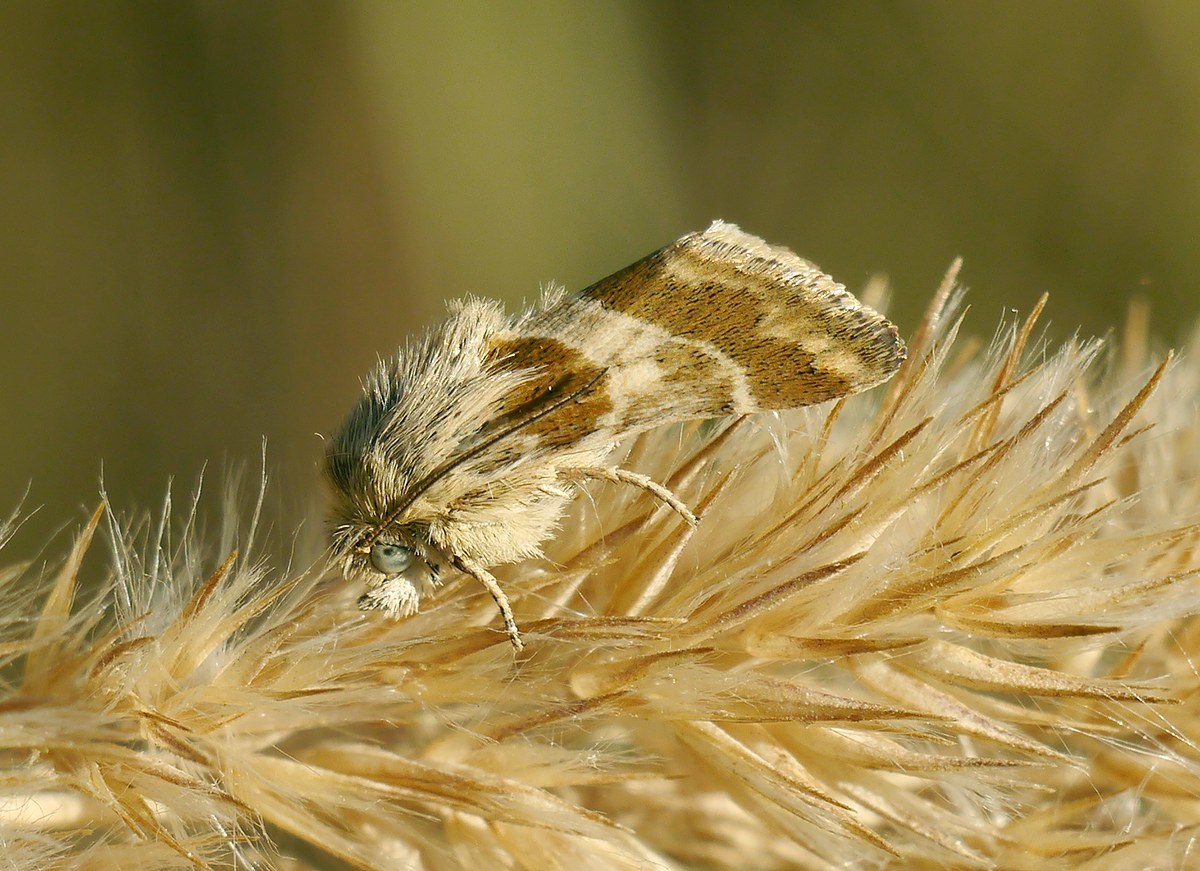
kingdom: Animalia
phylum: Arthropoda
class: Insecta
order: Lepidoptera
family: Noctuidae
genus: Schinia
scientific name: Schinia cognata
